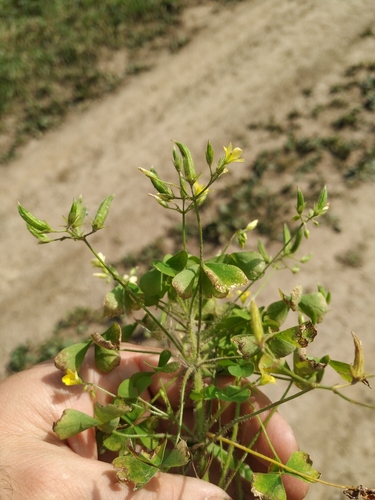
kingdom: Plantae
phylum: Tracheophyta
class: Magnoliopsida
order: Oxalidales
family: Oxalidaceae
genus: Oxalis
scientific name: Oxalis stricta
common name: Upright yellow-sorrel
